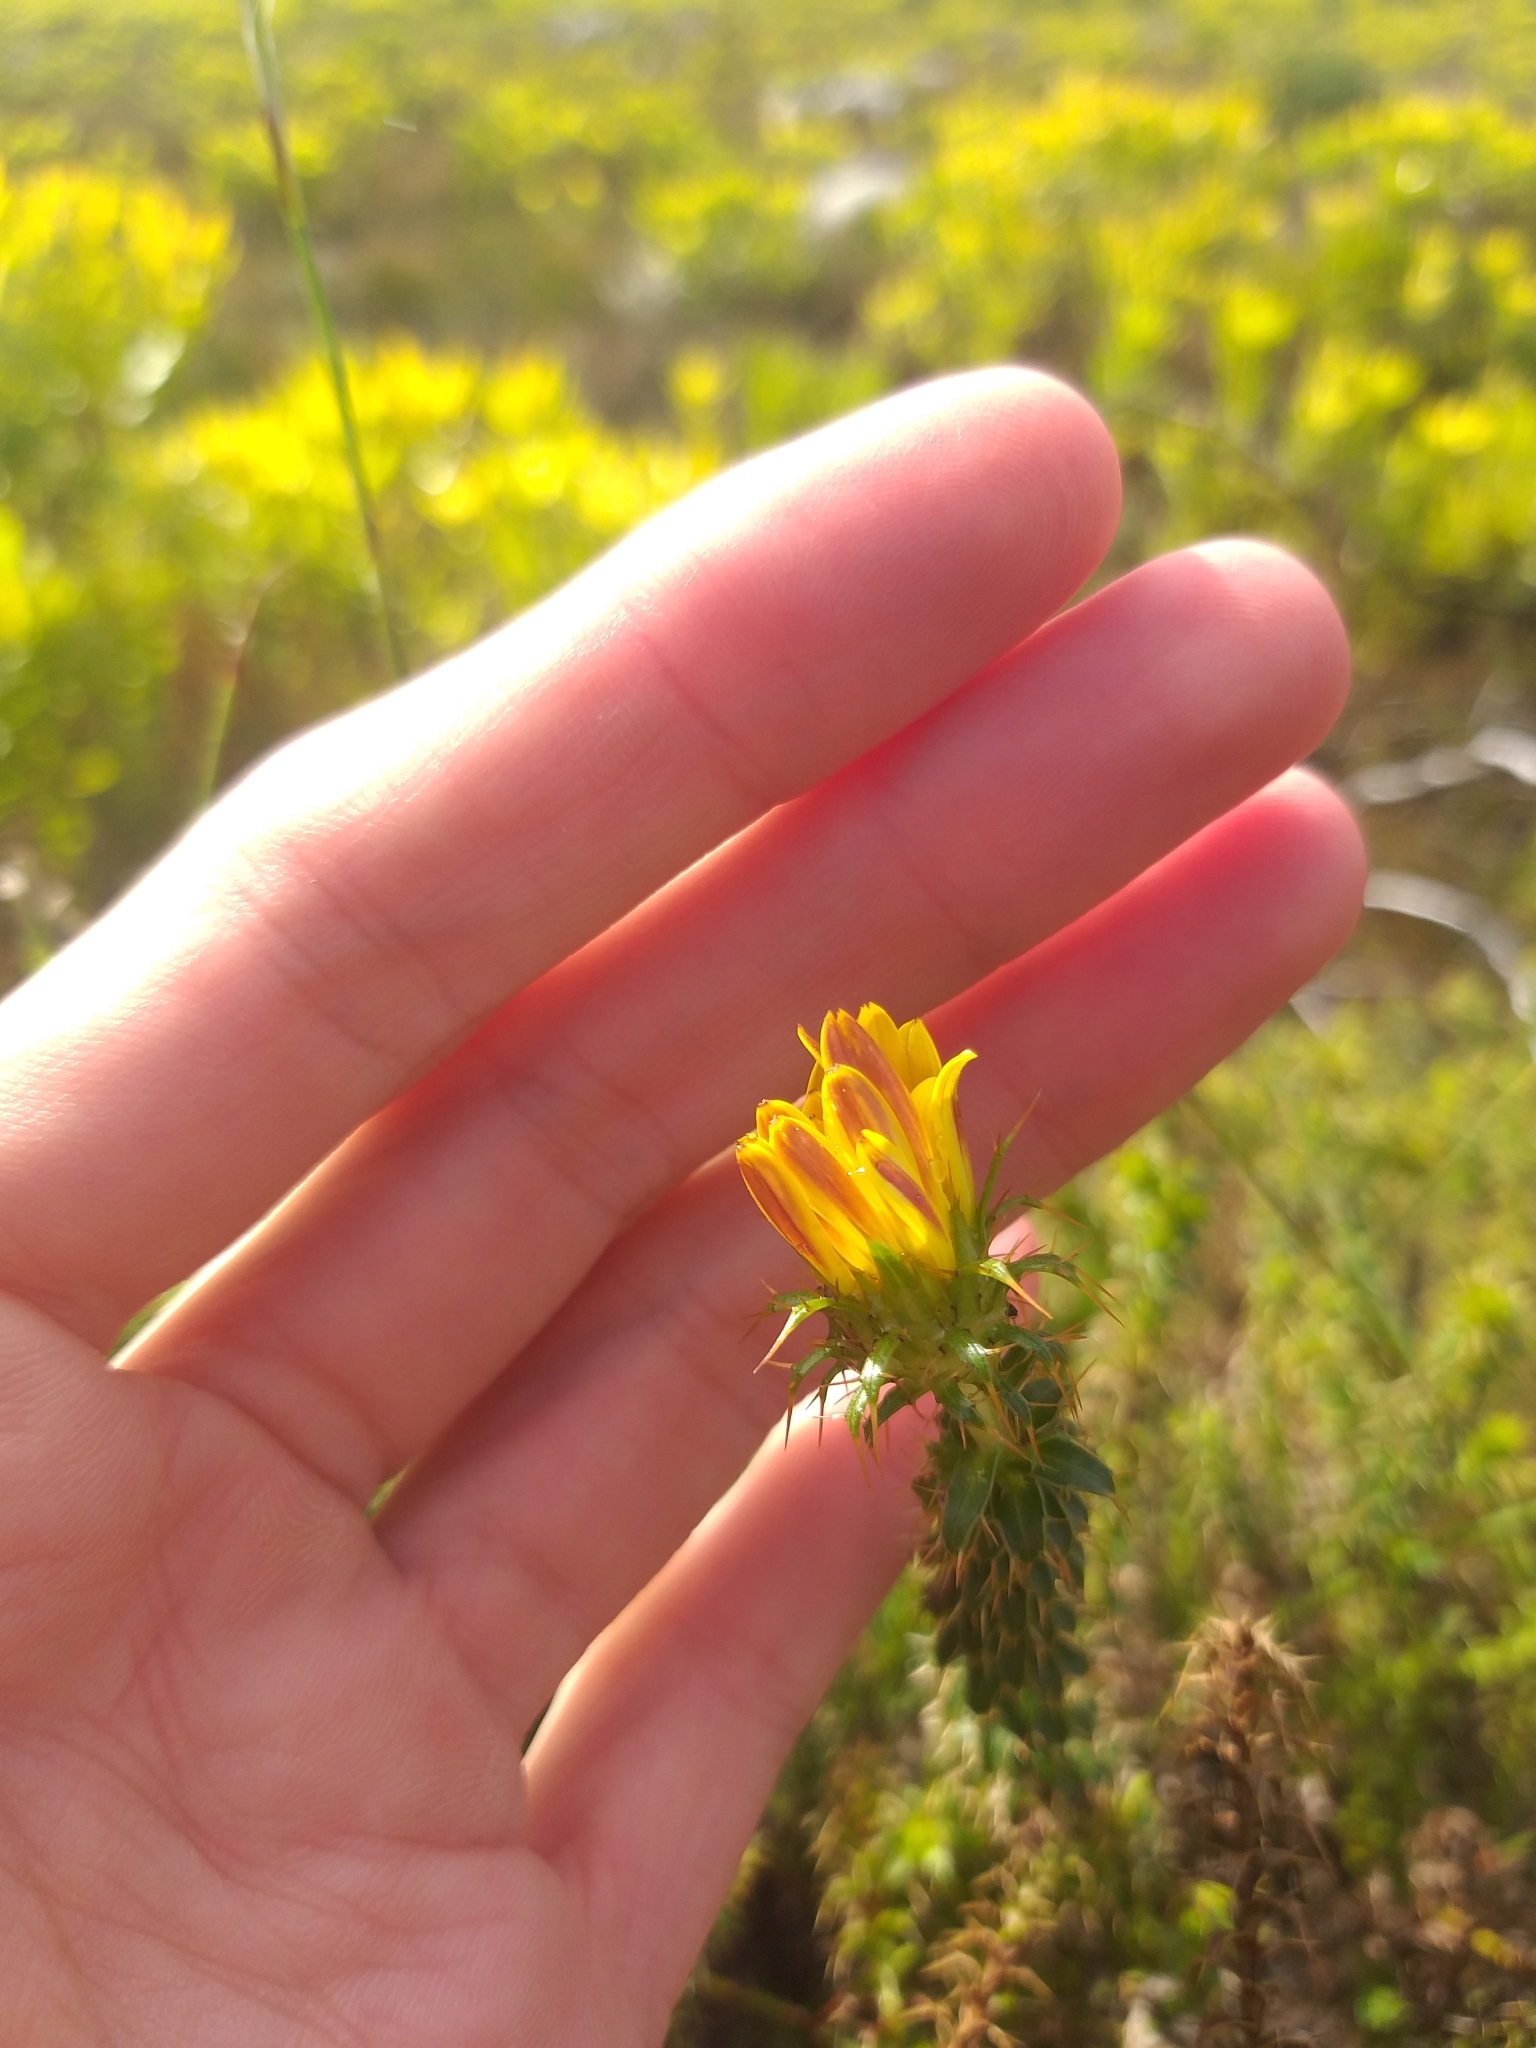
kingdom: Plantae
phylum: Tracheophyta
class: Magnoliopsida
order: Asterales
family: Asteraceae
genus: Cullumia
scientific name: Cullumia setosa
